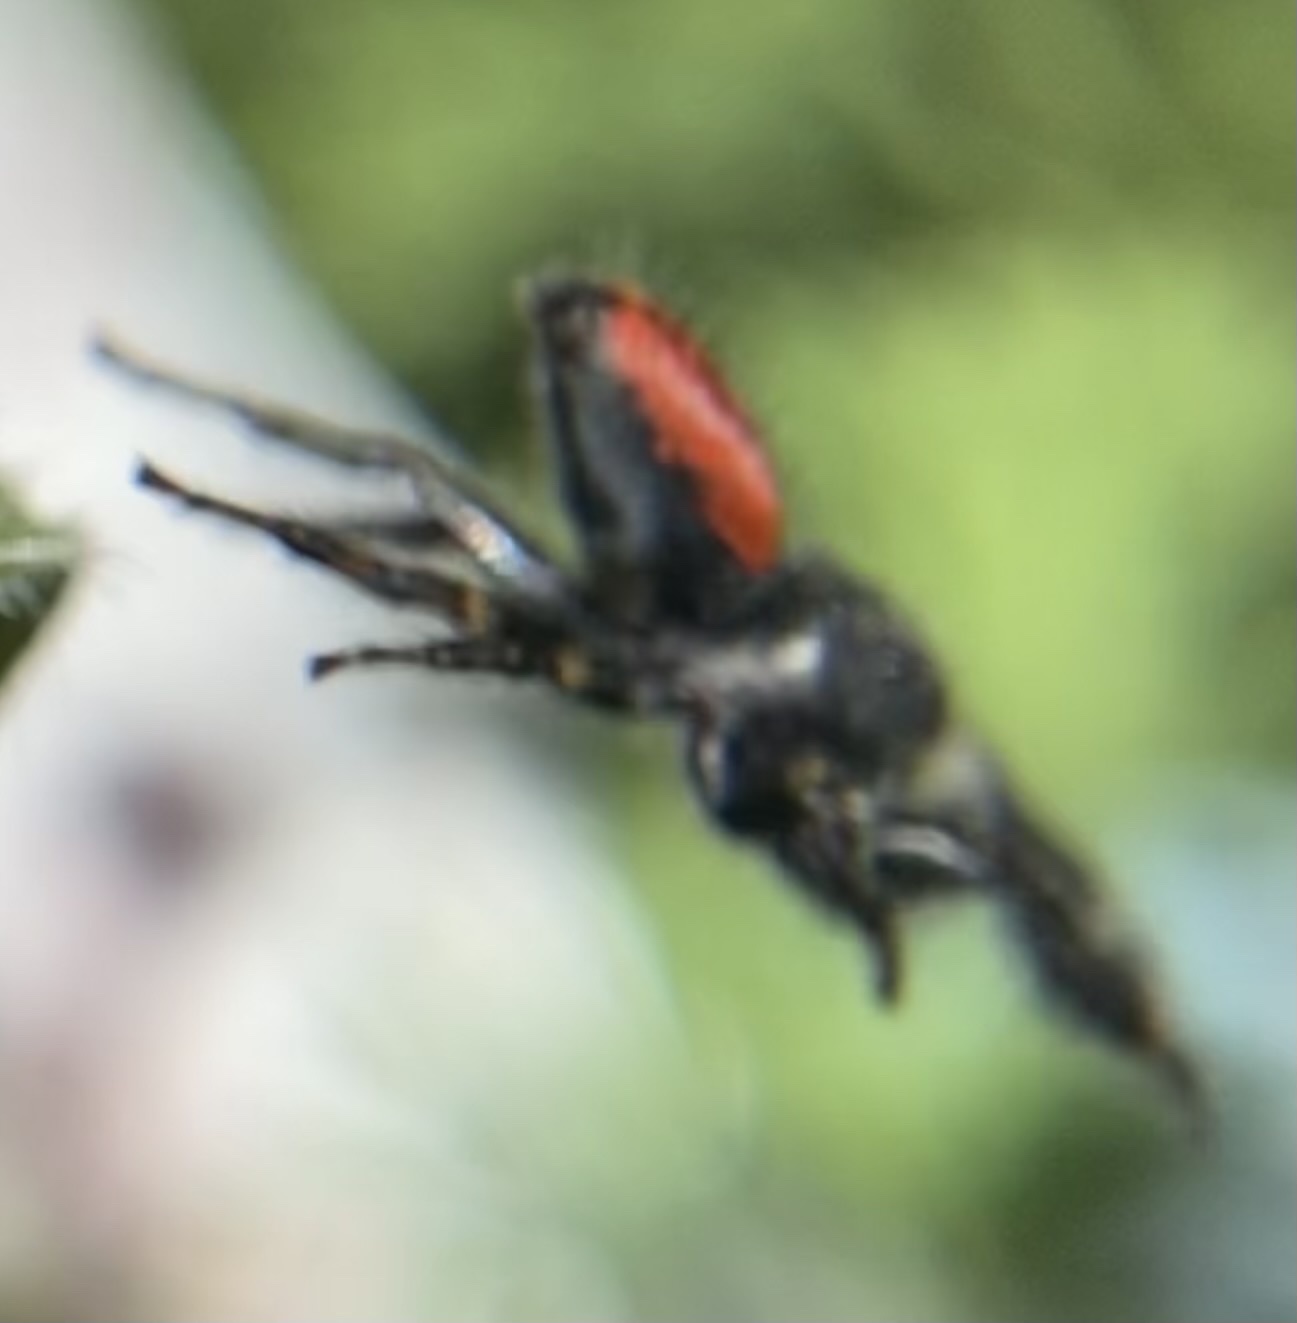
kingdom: Animalia
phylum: Arthropoda
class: Arachnida
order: Araneae
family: Salticidae
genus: Phidippus
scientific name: Phidippus johnsoni
